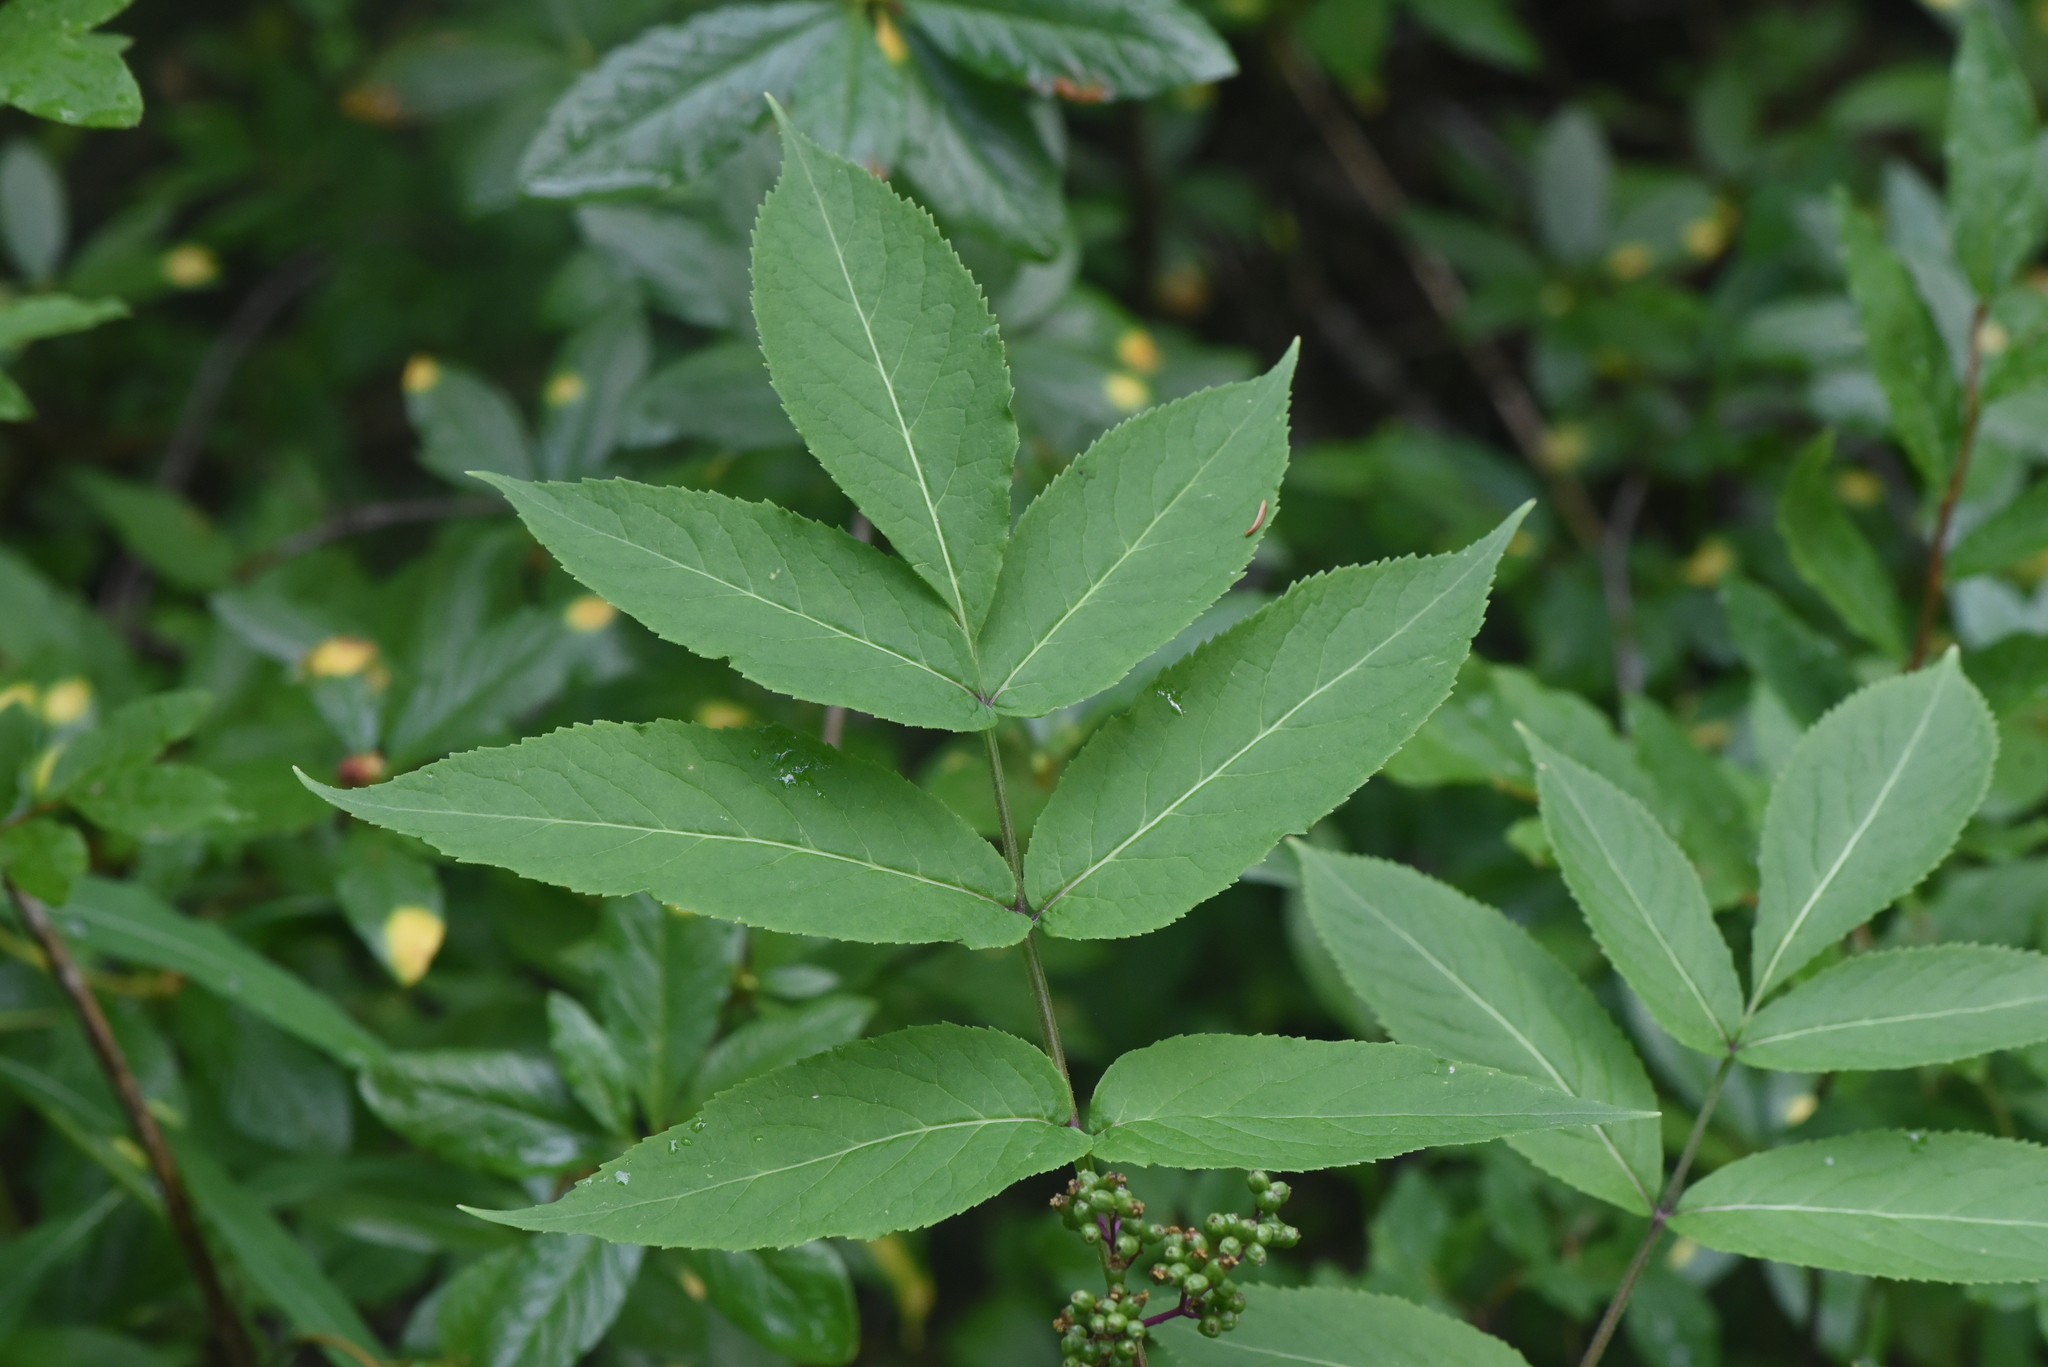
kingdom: Plantae
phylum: Tracheophyta
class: Magnoliopsida
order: Dipsacales
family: Viburnaceae
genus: Sambucus
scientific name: Sambucus racemosa
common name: Red-berried elder
